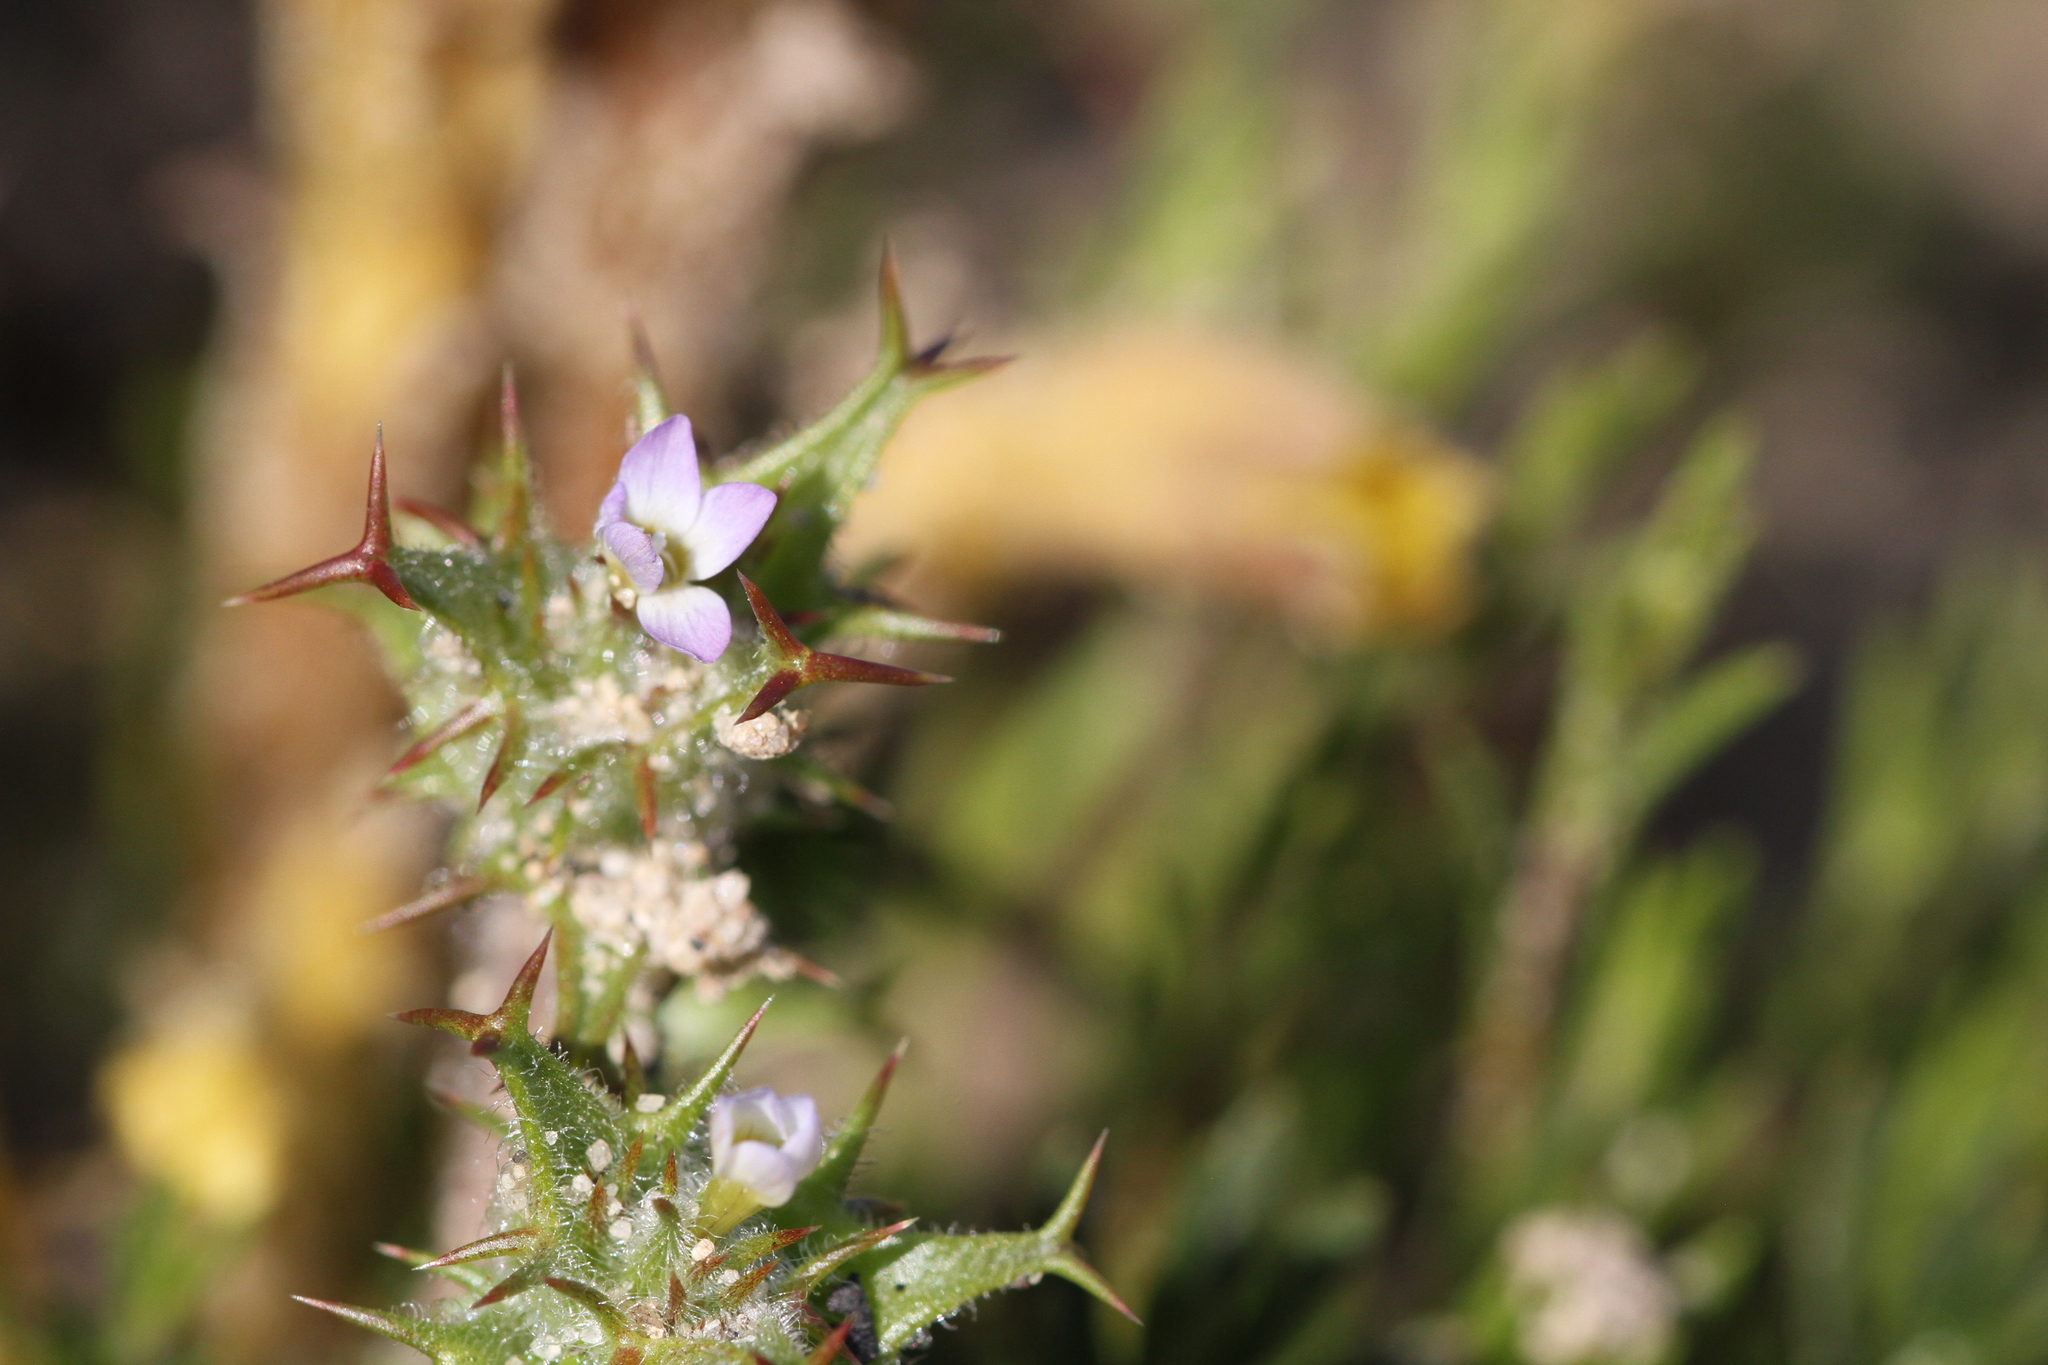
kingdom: Plantae
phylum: Tracheophyta
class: Magnoliopsida
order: Ericales
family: Polemoniaceae
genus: Navarretia
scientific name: Navarretia hamata
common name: Hooked navarretia
